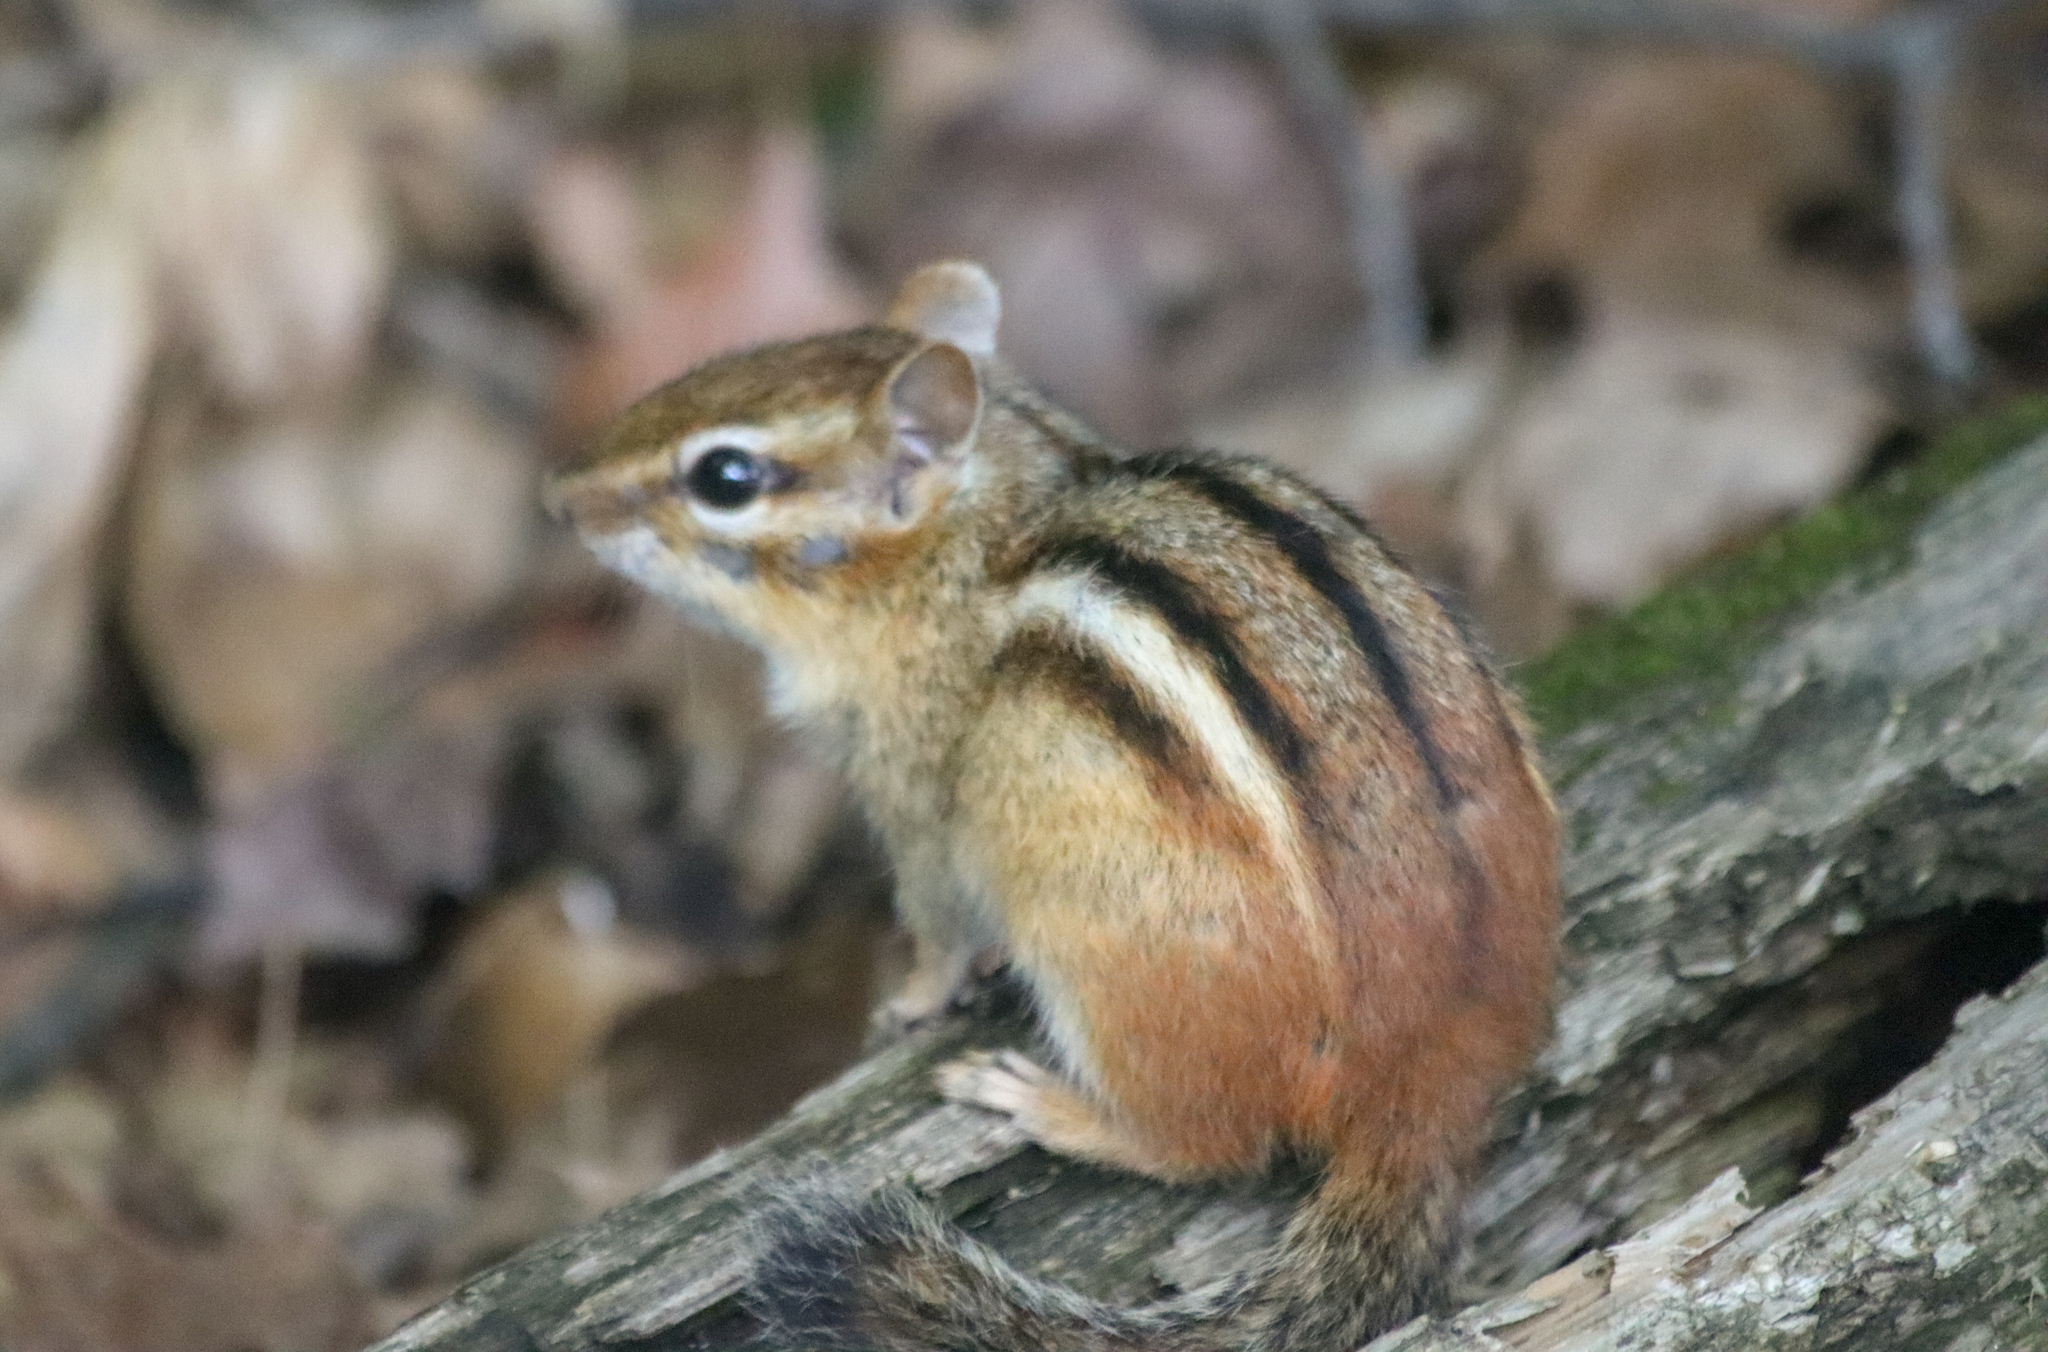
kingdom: Animalia
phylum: Chordata
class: Mammalia
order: Rodentia
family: Sciuridae
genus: Tamias
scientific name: Tamias striatus
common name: Eastern chipmunk
